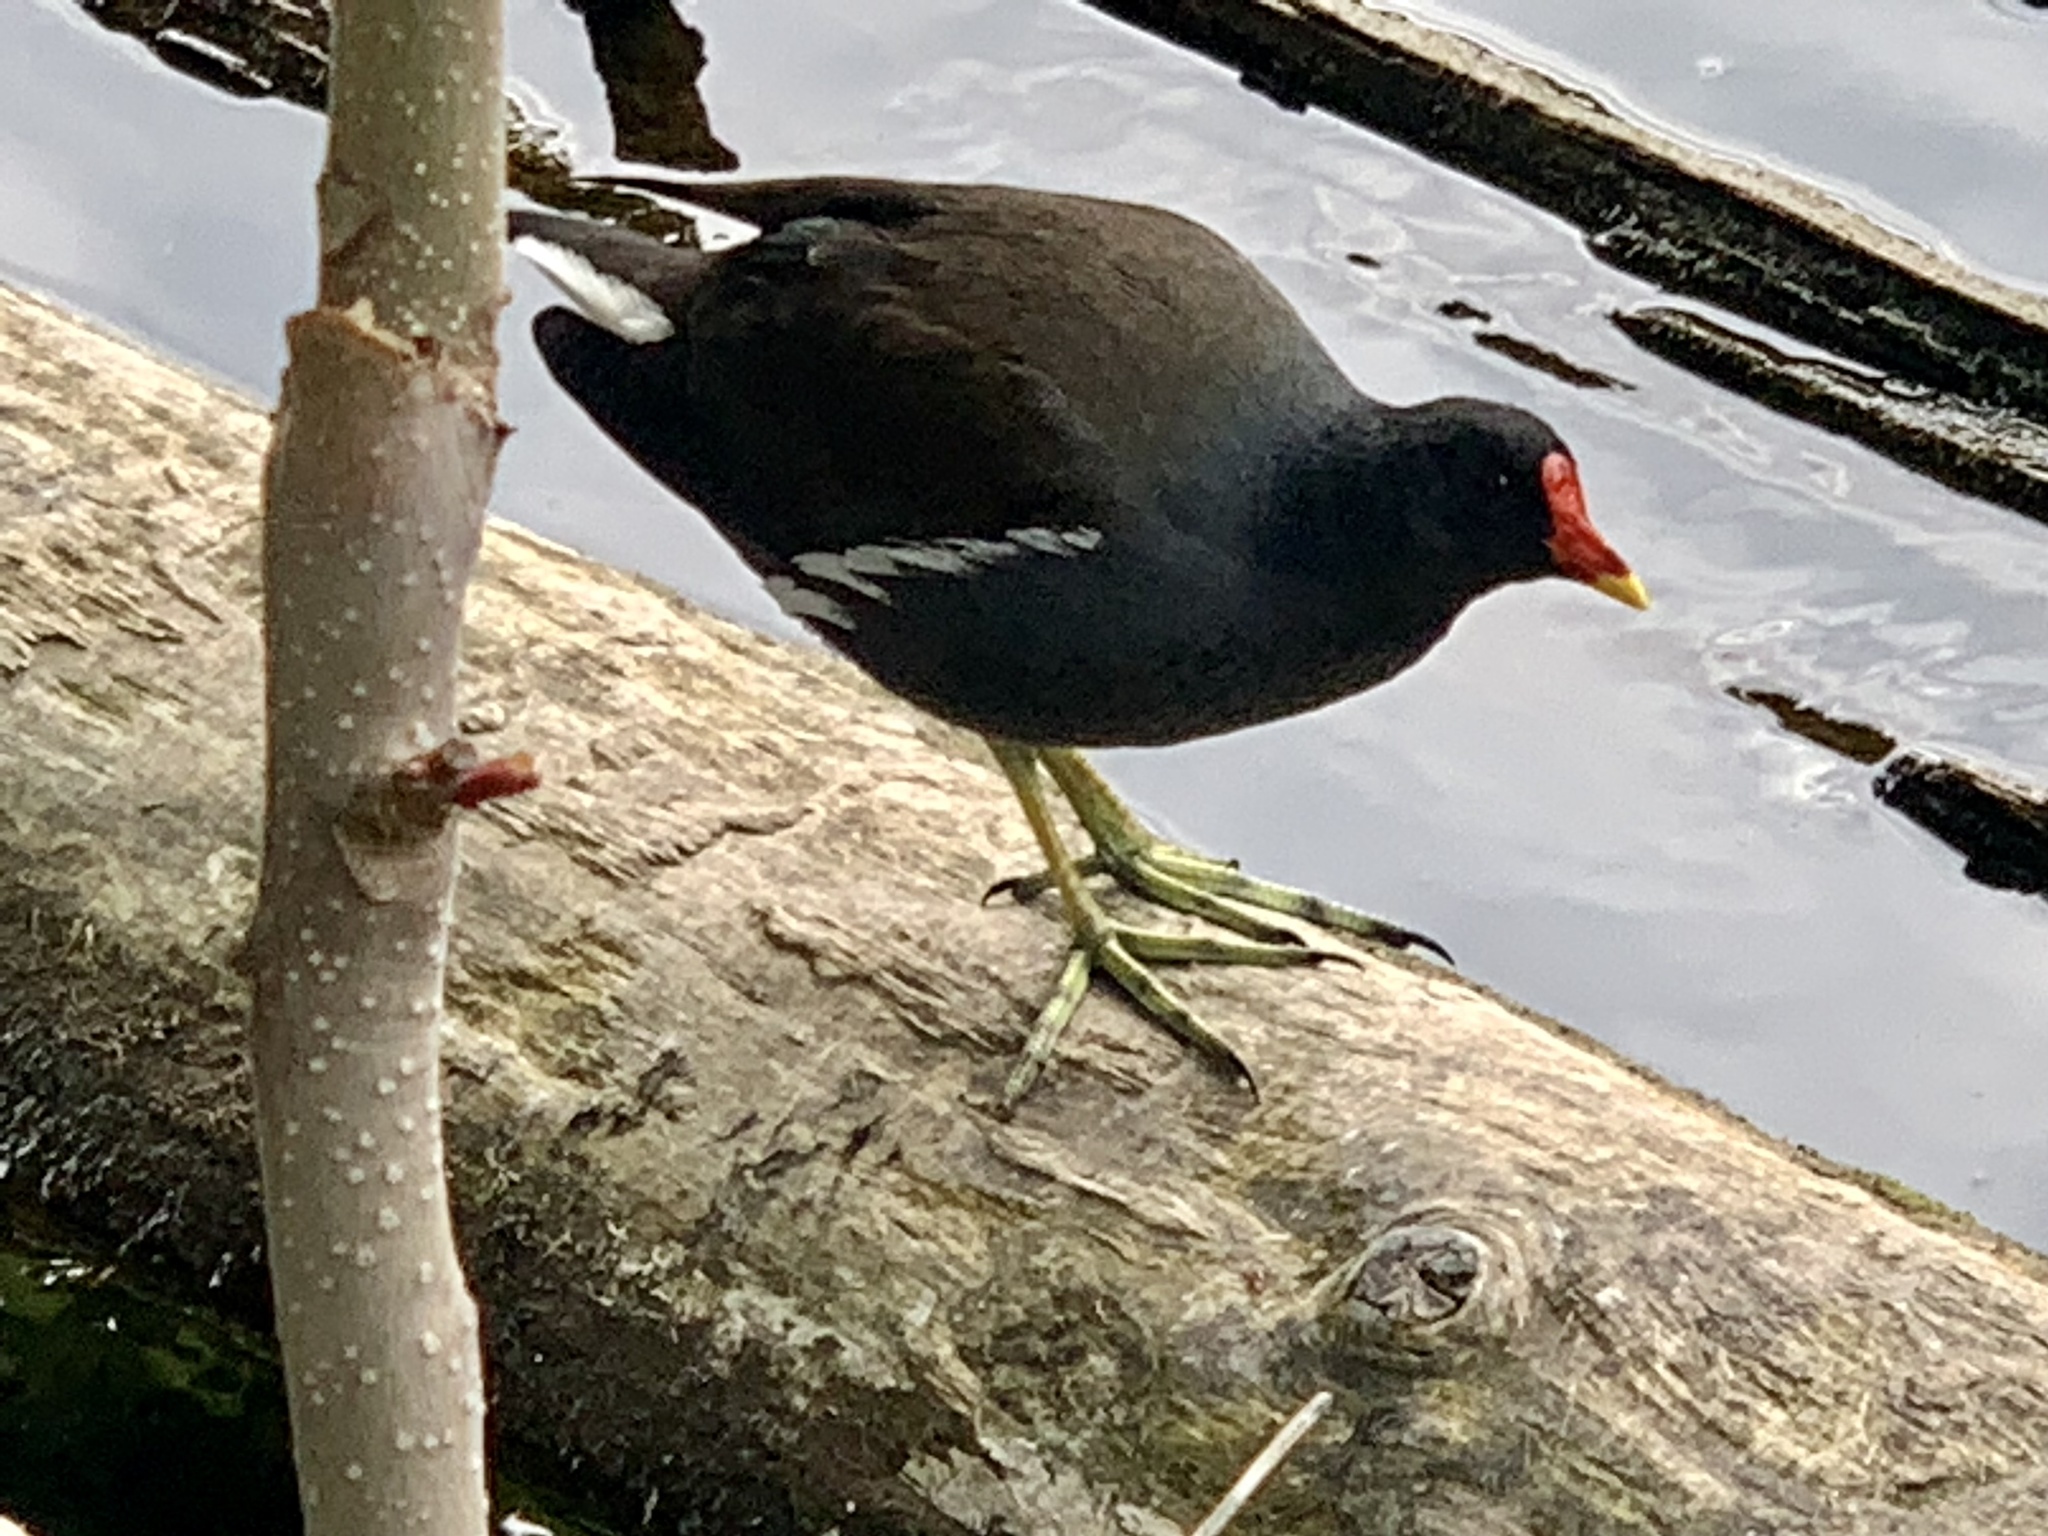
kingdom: Animalia
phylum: Chordata
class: Aves
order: Gruiformes
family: Rallidae
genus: Gallinula
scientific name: Gallinula chloropus
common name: Common moorhen
